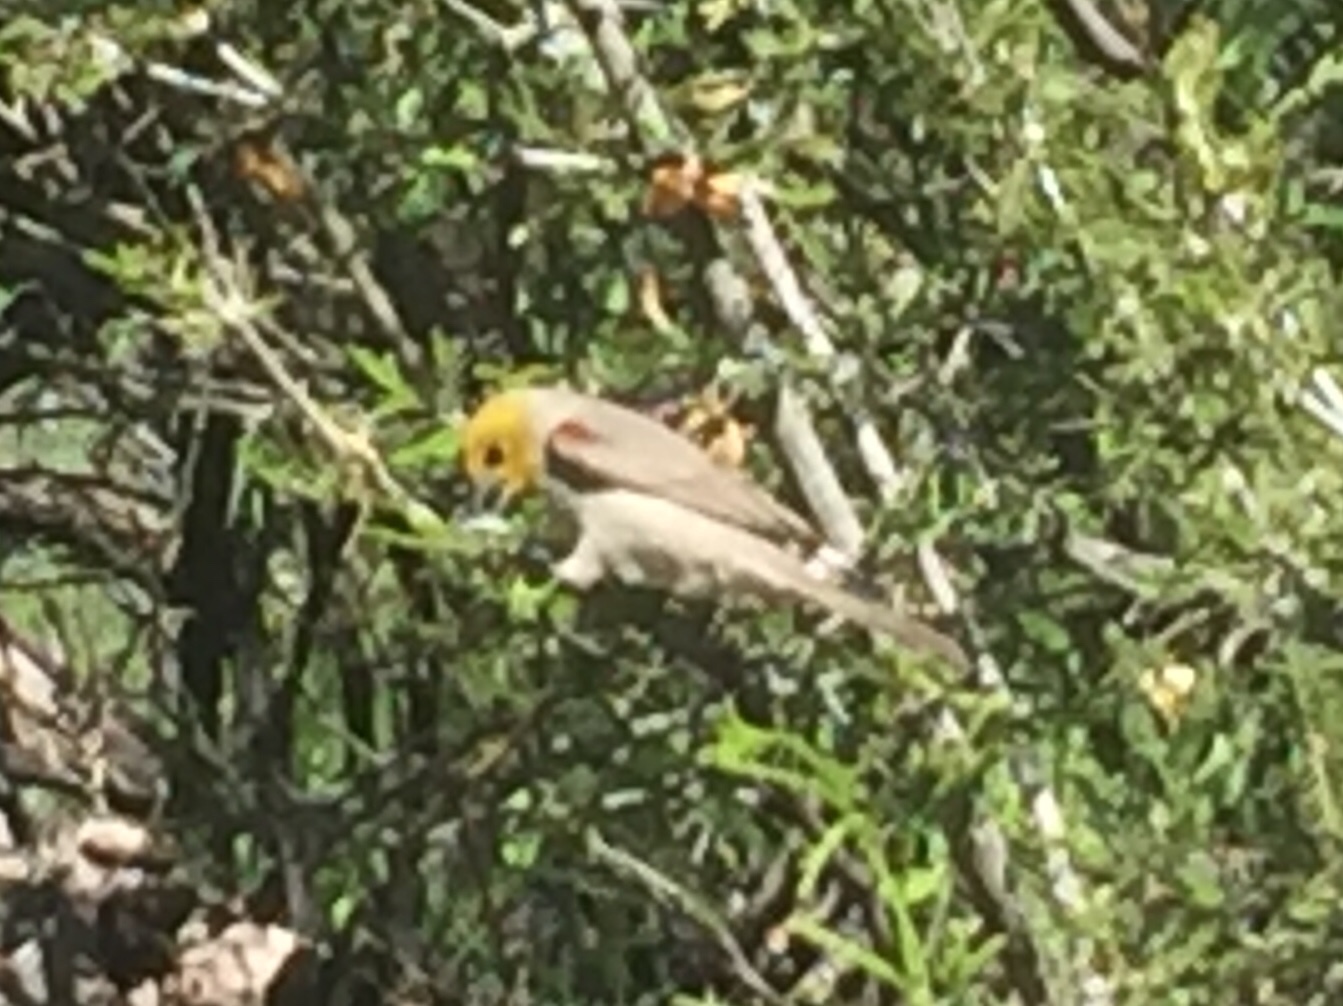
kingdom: Animalia
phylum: Chordata
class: Aves
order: Passeriformes
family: Remizidae
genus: Auriparus
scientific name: Auriparus flaviceps
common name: Verdin
